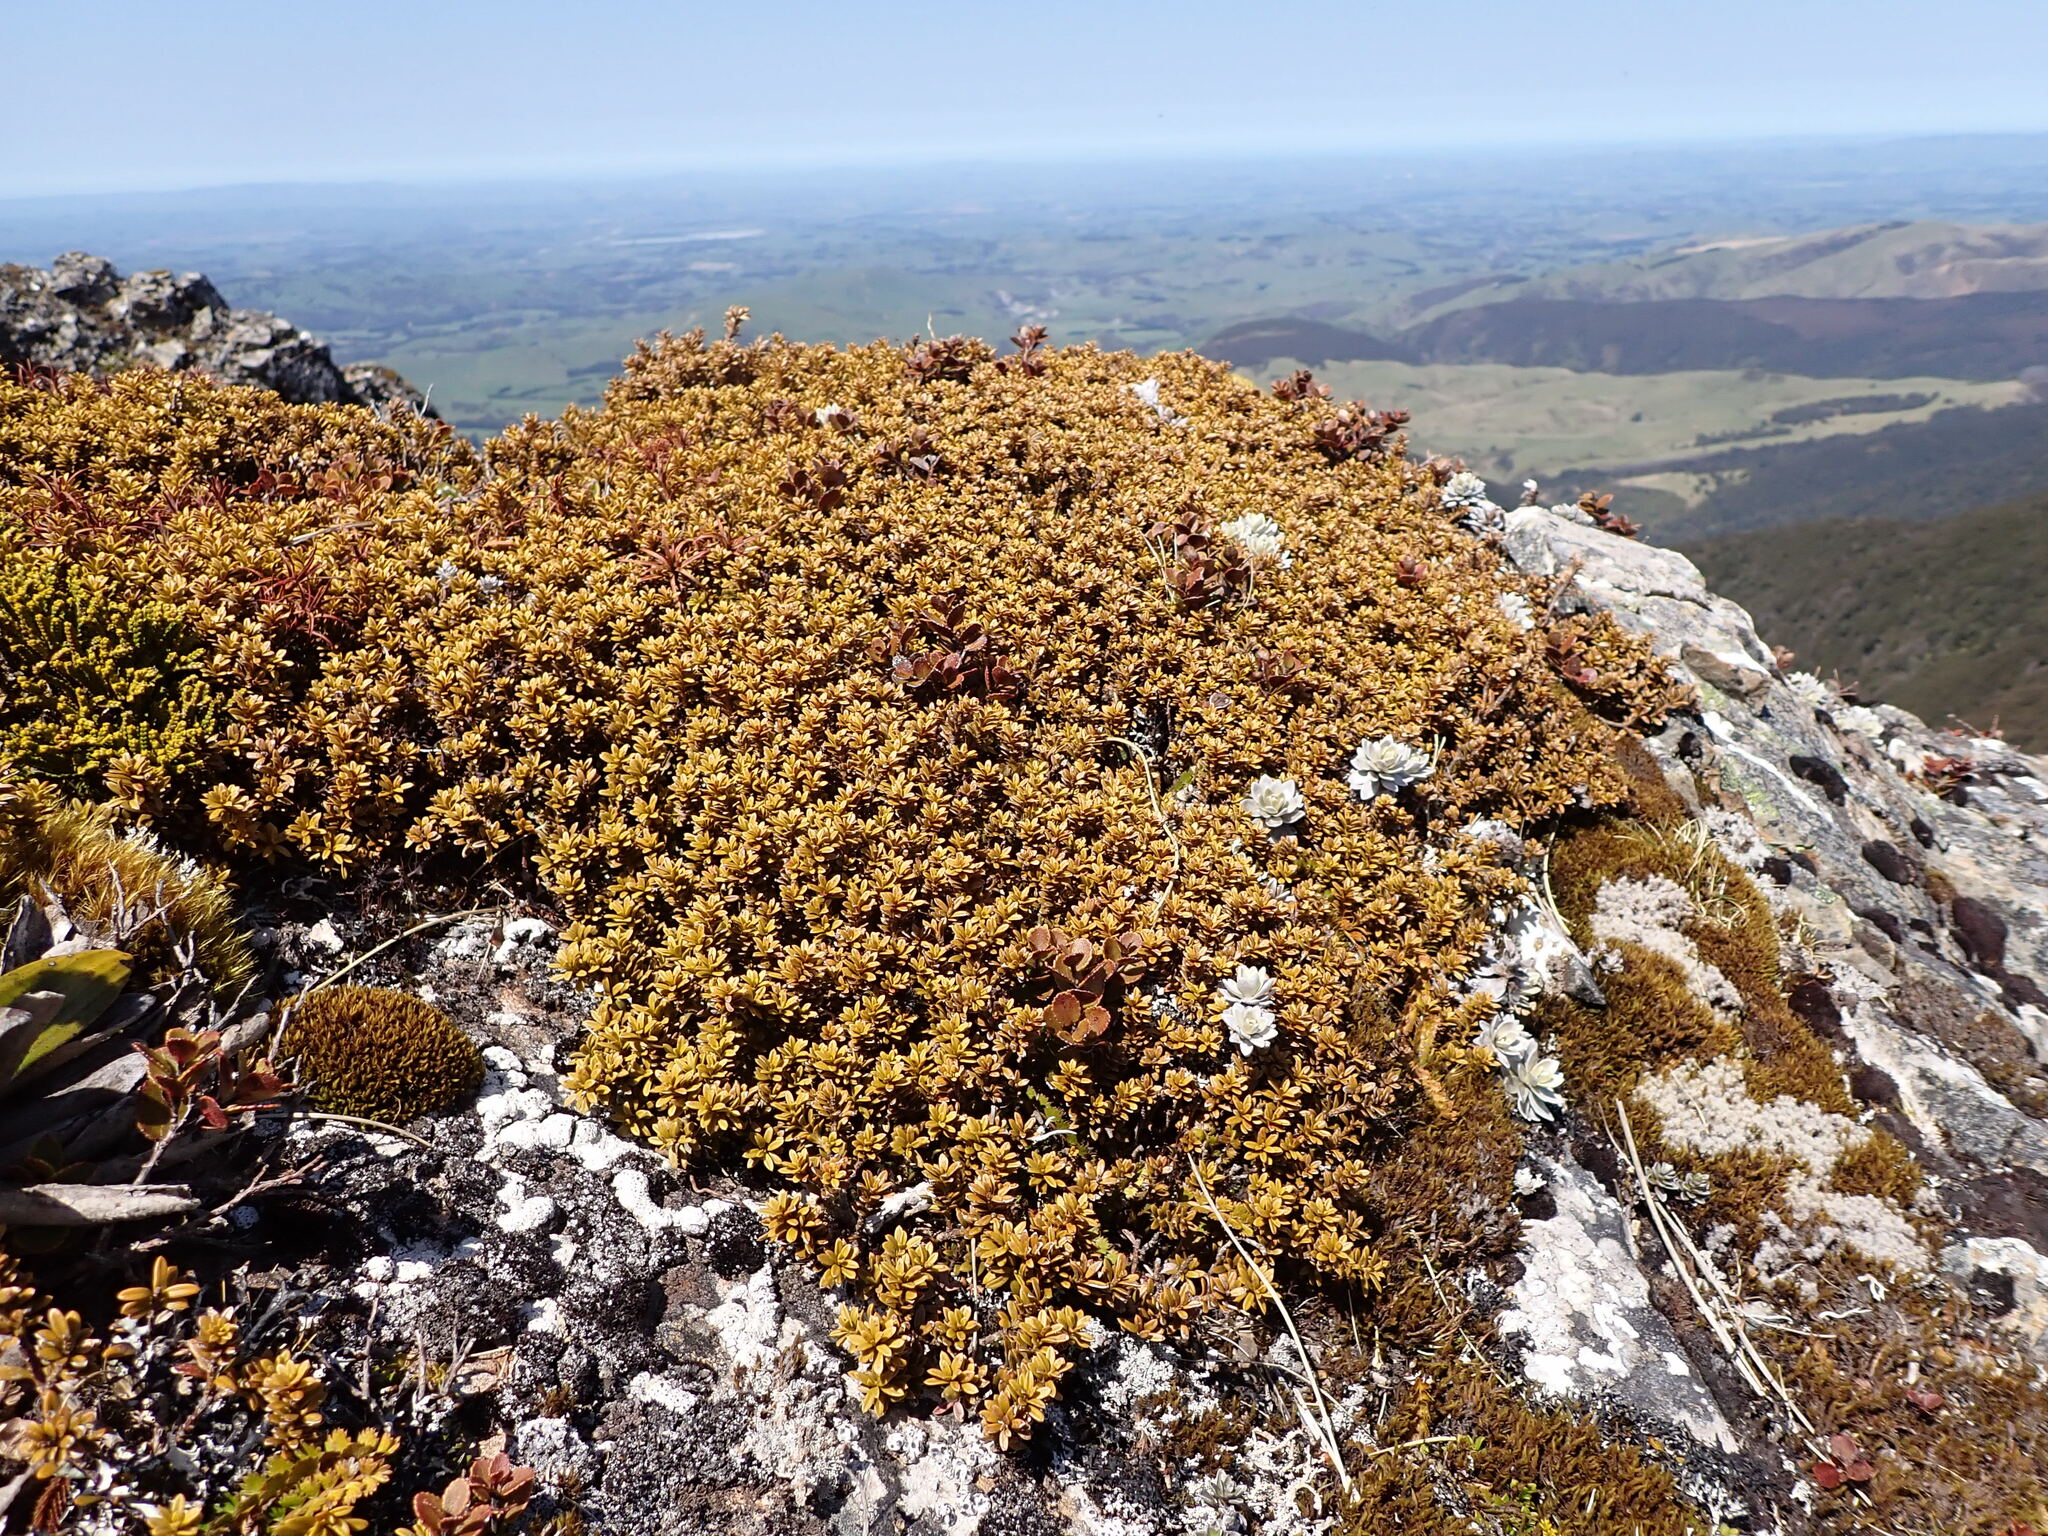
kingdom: Plantae
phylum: Tracheophyta
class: Pinopsida
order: Pinales
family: Podocarpaceae
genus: Podocarpus
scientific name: Podocarpus nivalis
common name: Alpine totara
